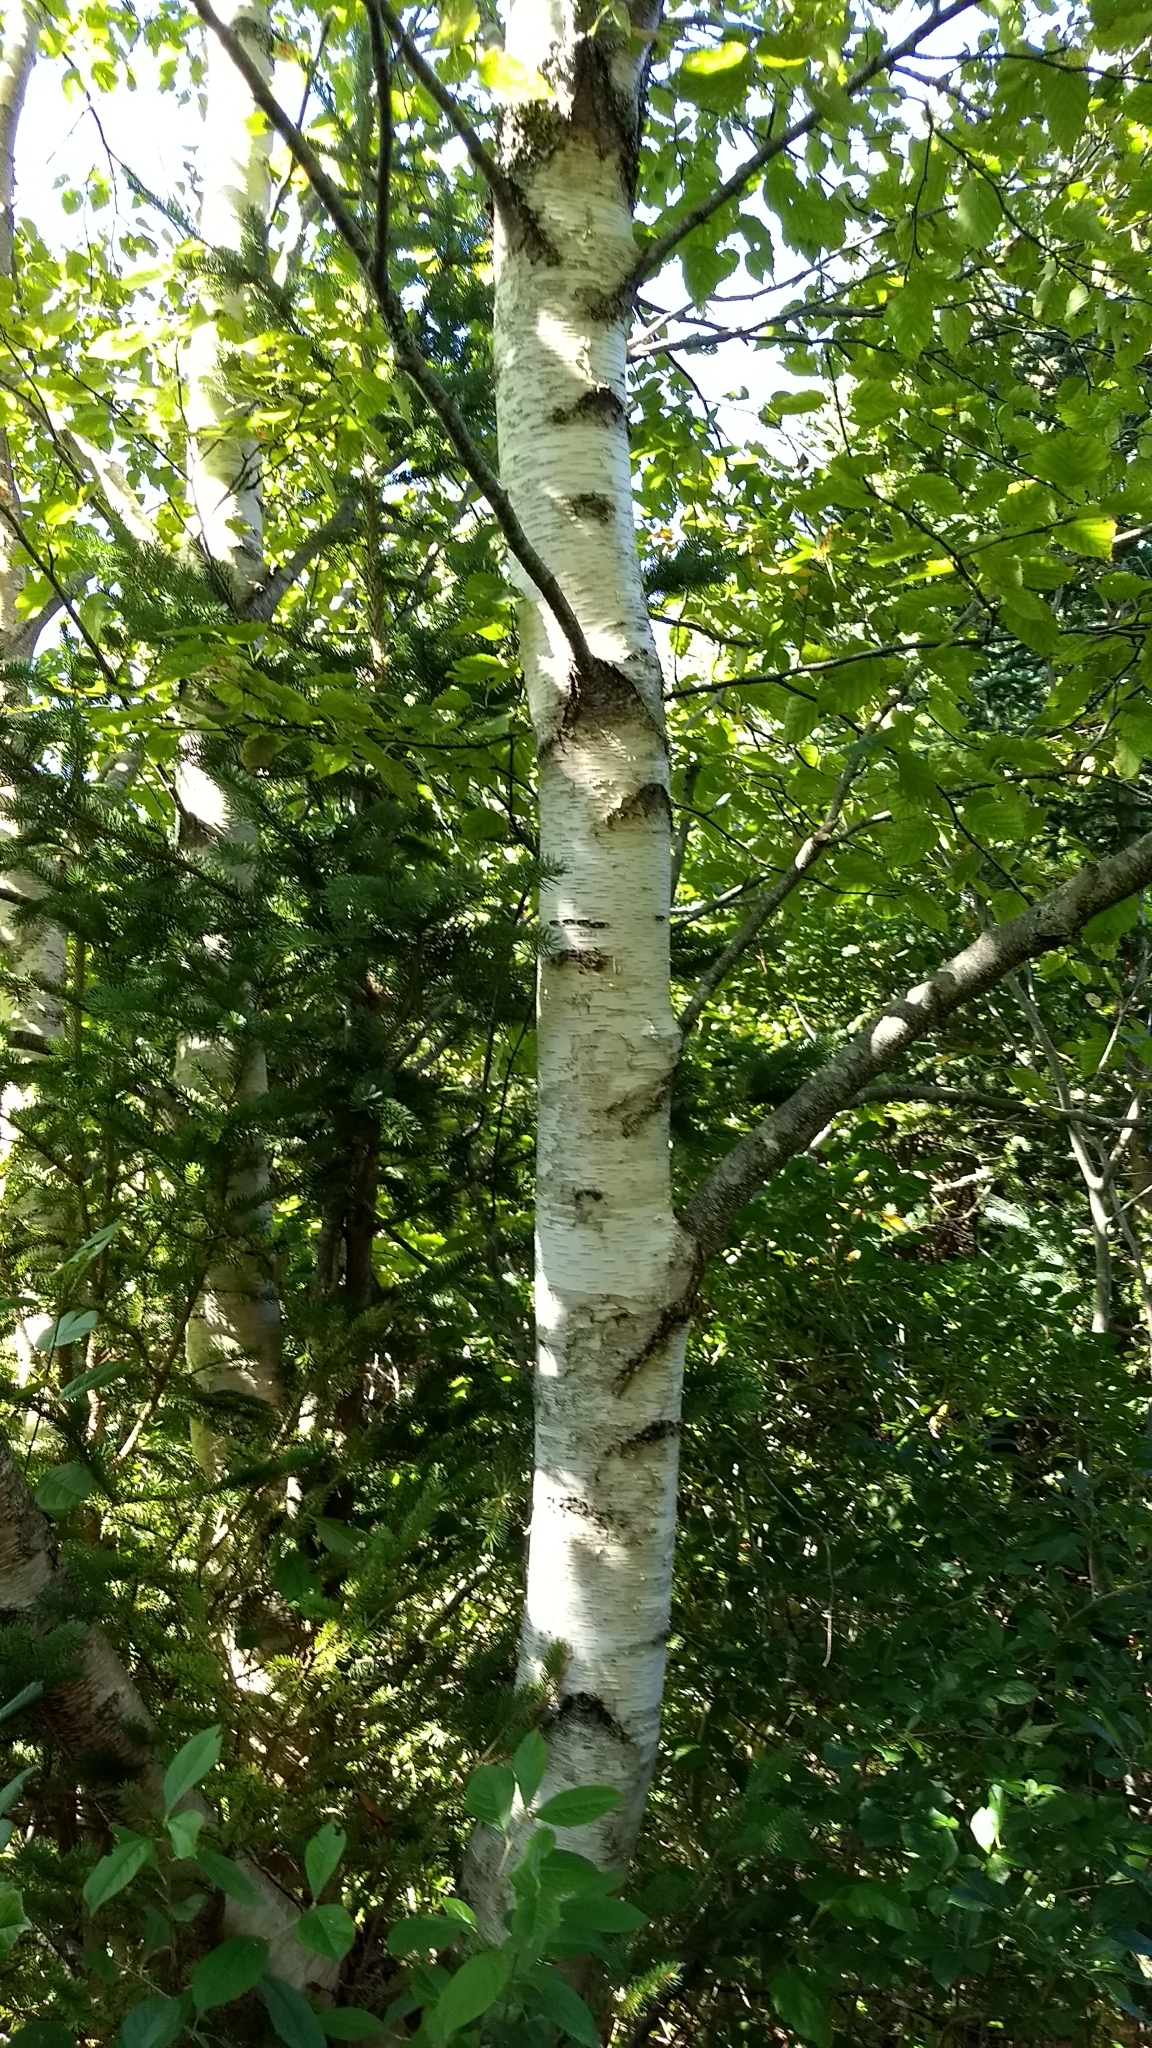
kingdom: Plantae
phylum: Tracheophyta
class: Magnoliopsida
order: Fagales
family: Betulaceae
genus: Betula
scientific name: Betula papyrifera
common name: Paper birch
